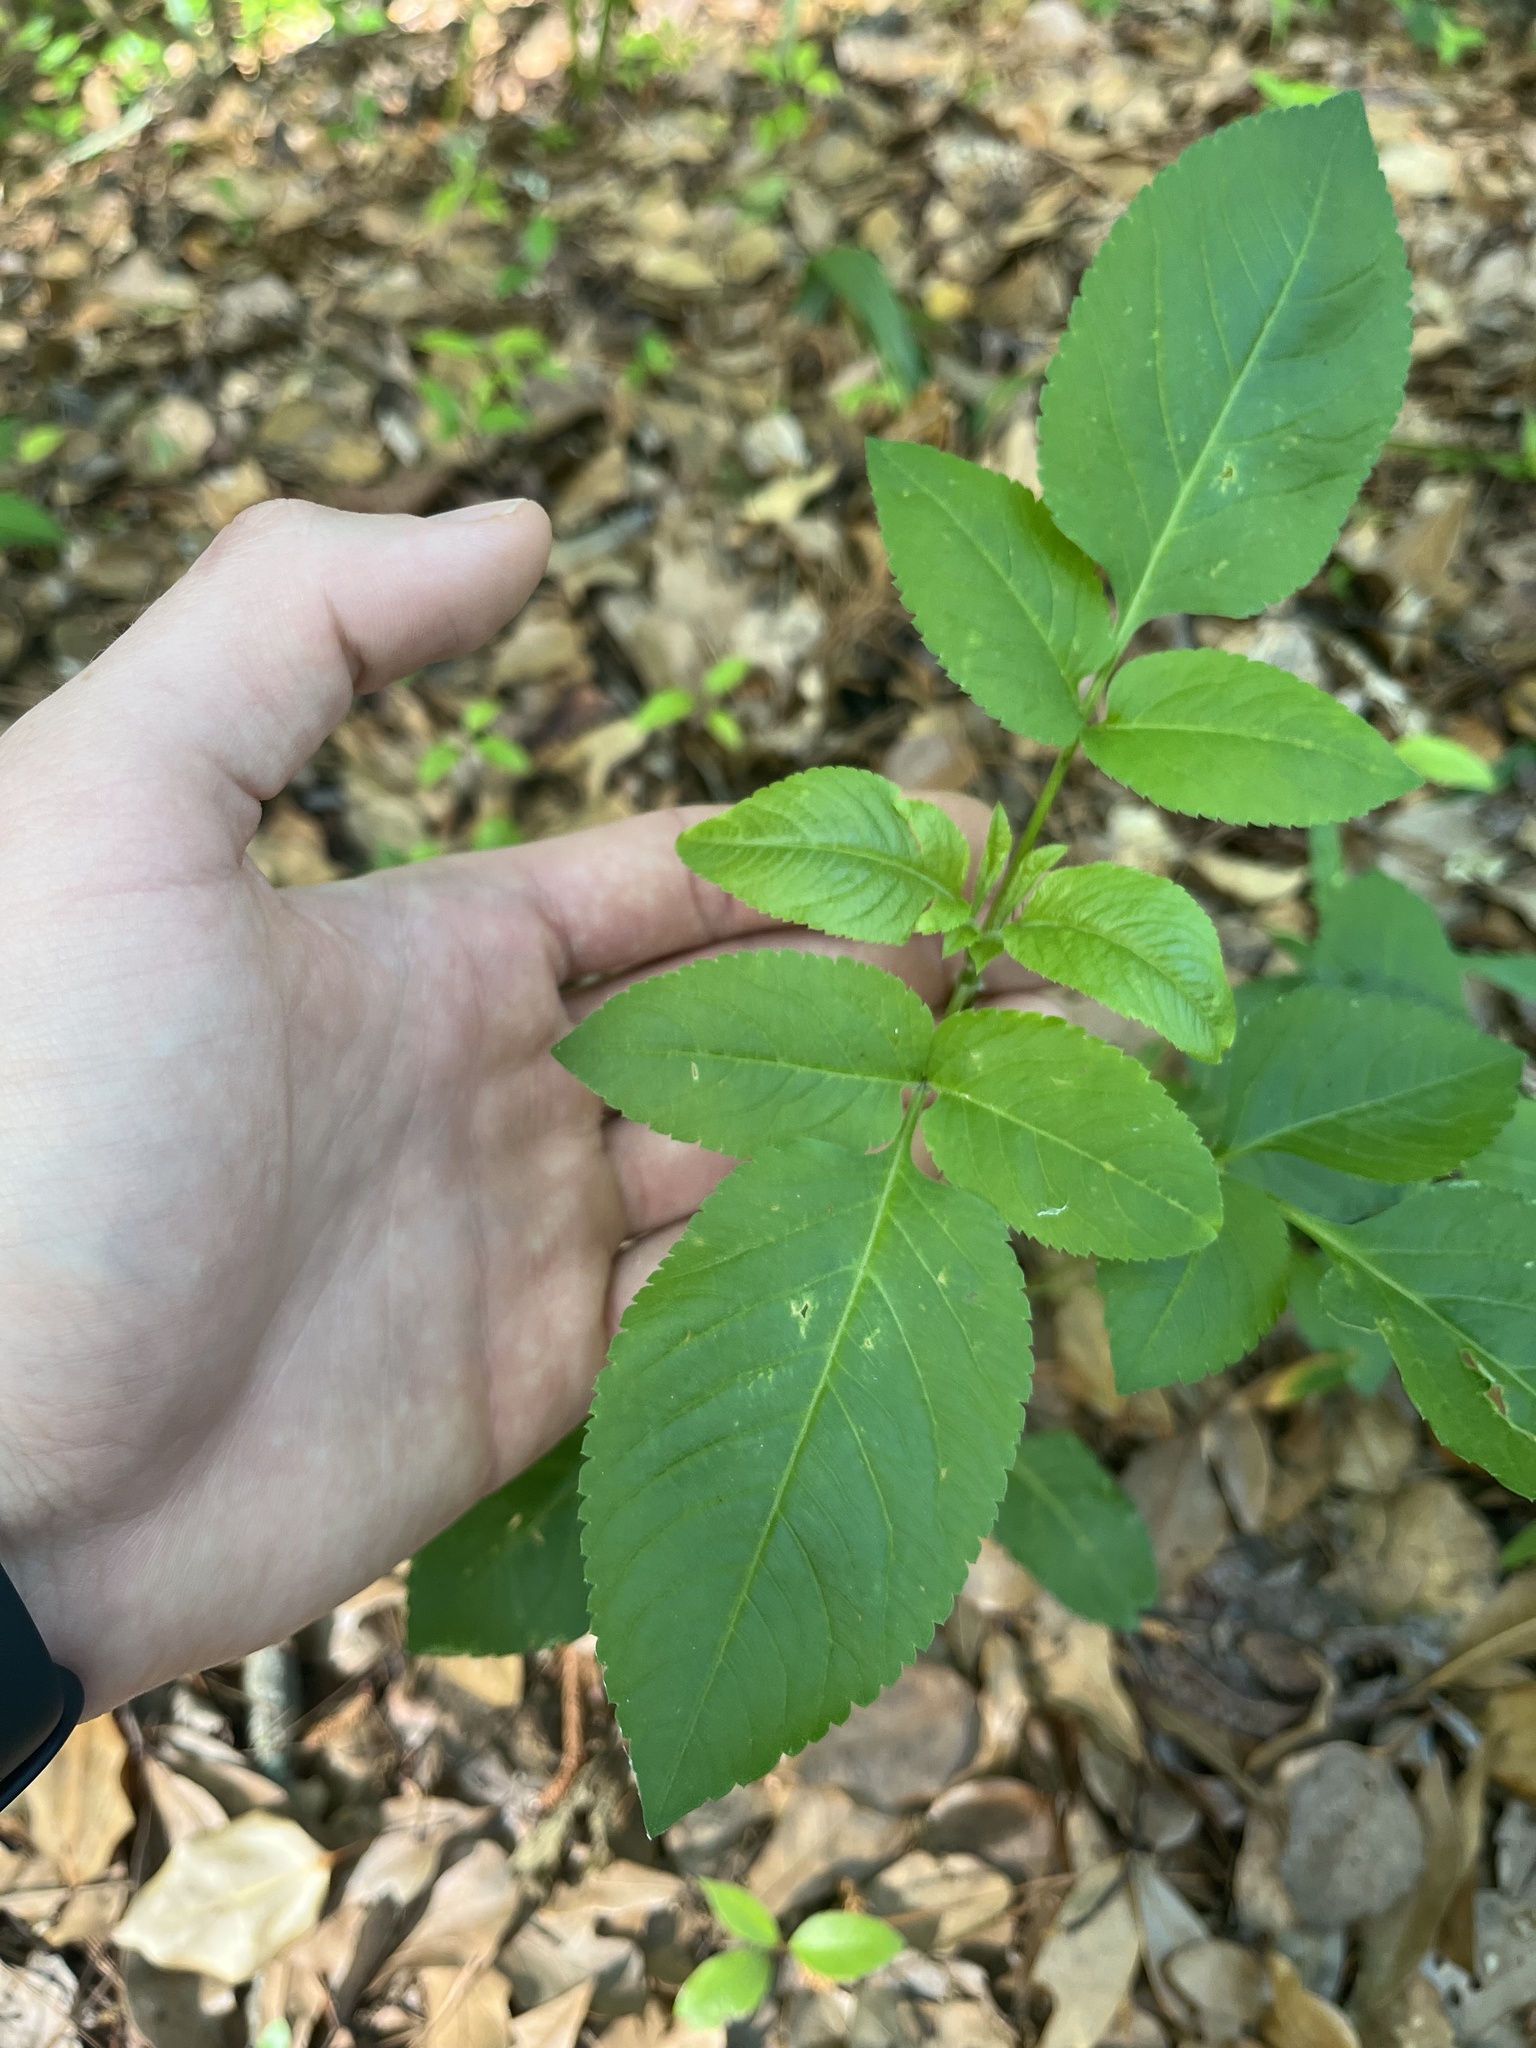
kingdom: Plantae
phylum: Tracheophyta
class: Magnoliopsida
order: Asterales
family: Asteraceae
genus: Bidens
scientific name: Bidens alba
